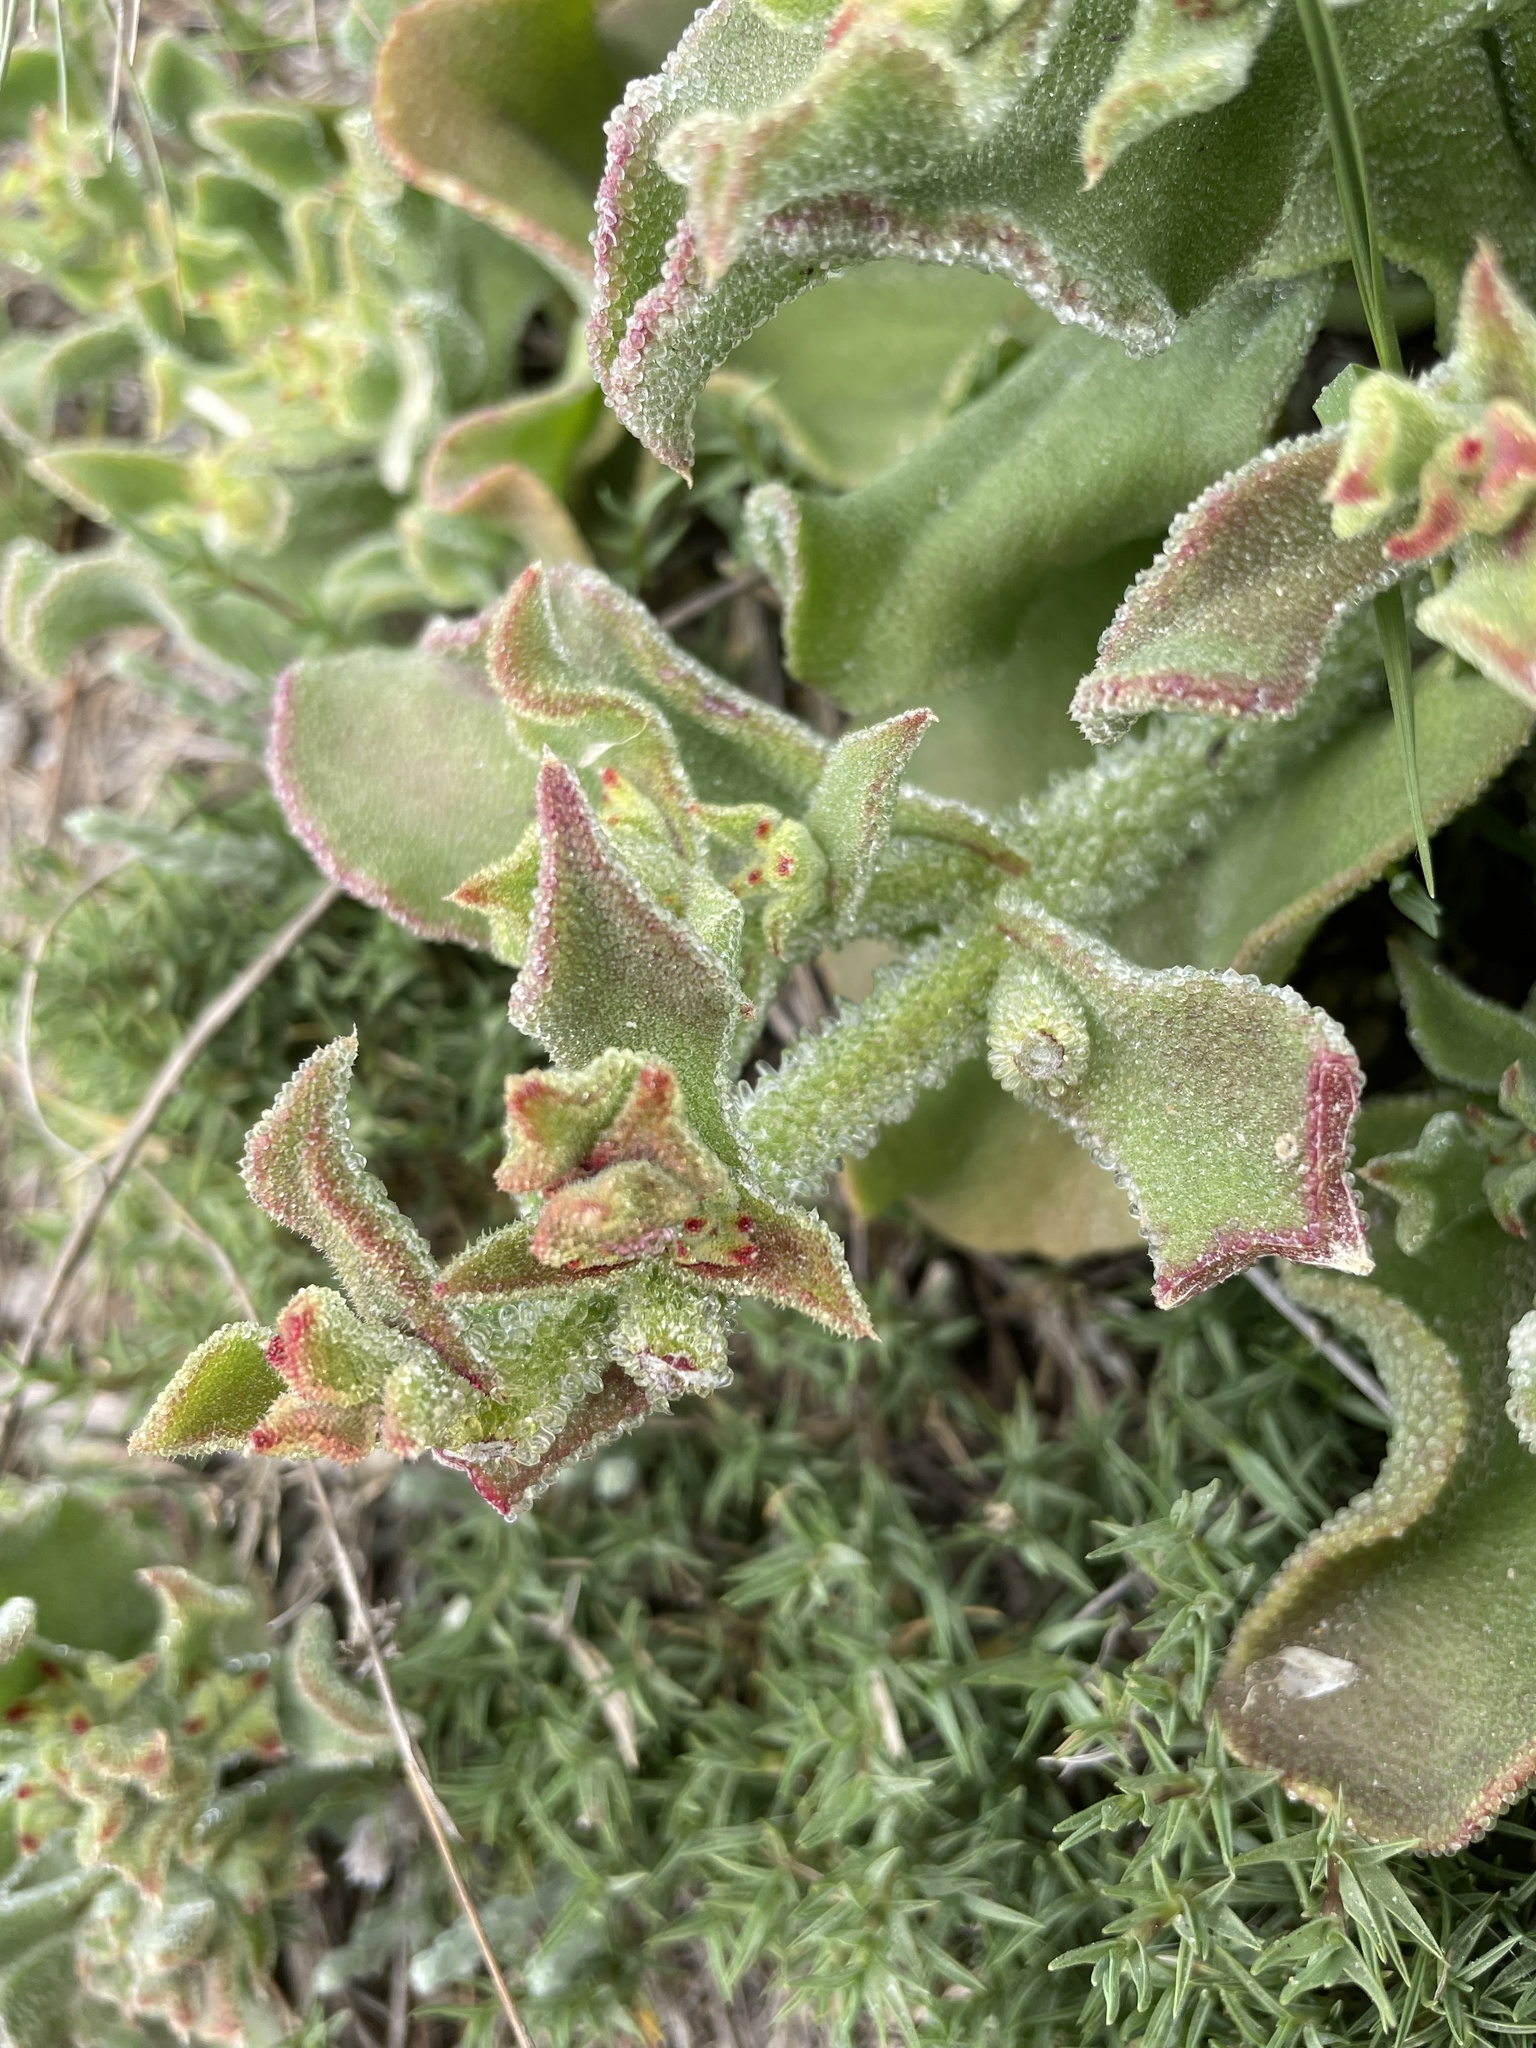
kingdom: Plantae
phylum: Tracheophyta
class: Magnoliopsida
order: Caryophyllales
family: Aizoaceae
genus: Mesembryanthemum
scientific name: Mesembryanthemum crystallinum
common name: Common iceplant
